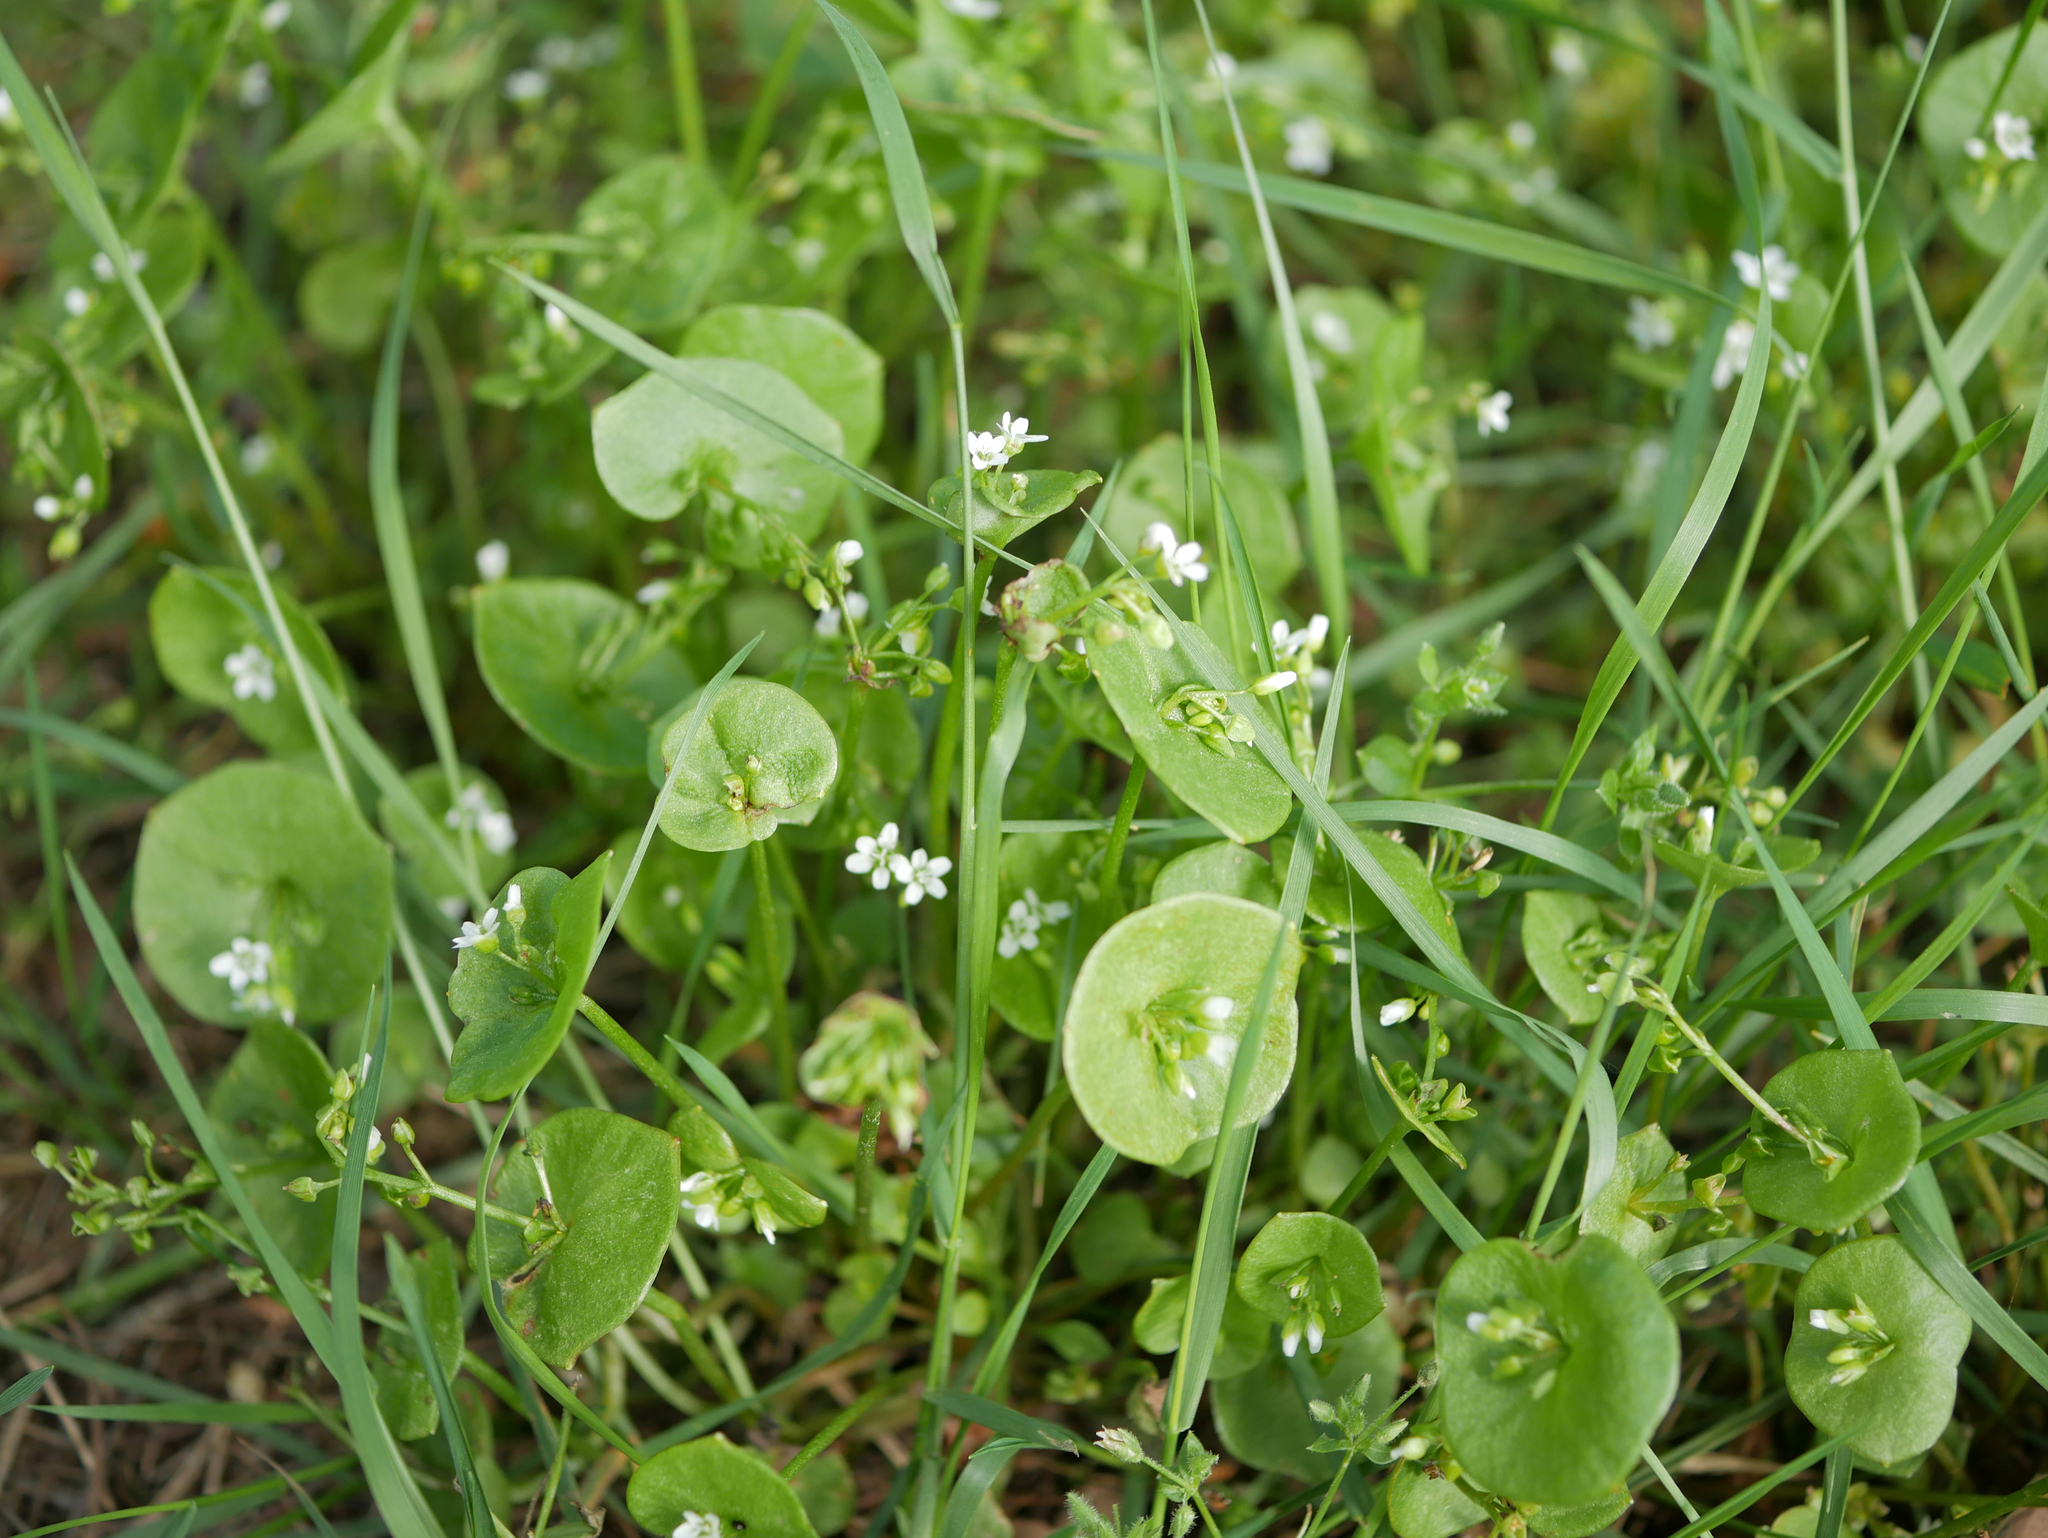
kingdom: Plantae
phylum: Tracheophyta
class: Magnoliopsida
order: Caryophyllales
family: Montiaceae
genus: Claytonia
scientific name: Claytonia perfoliata
